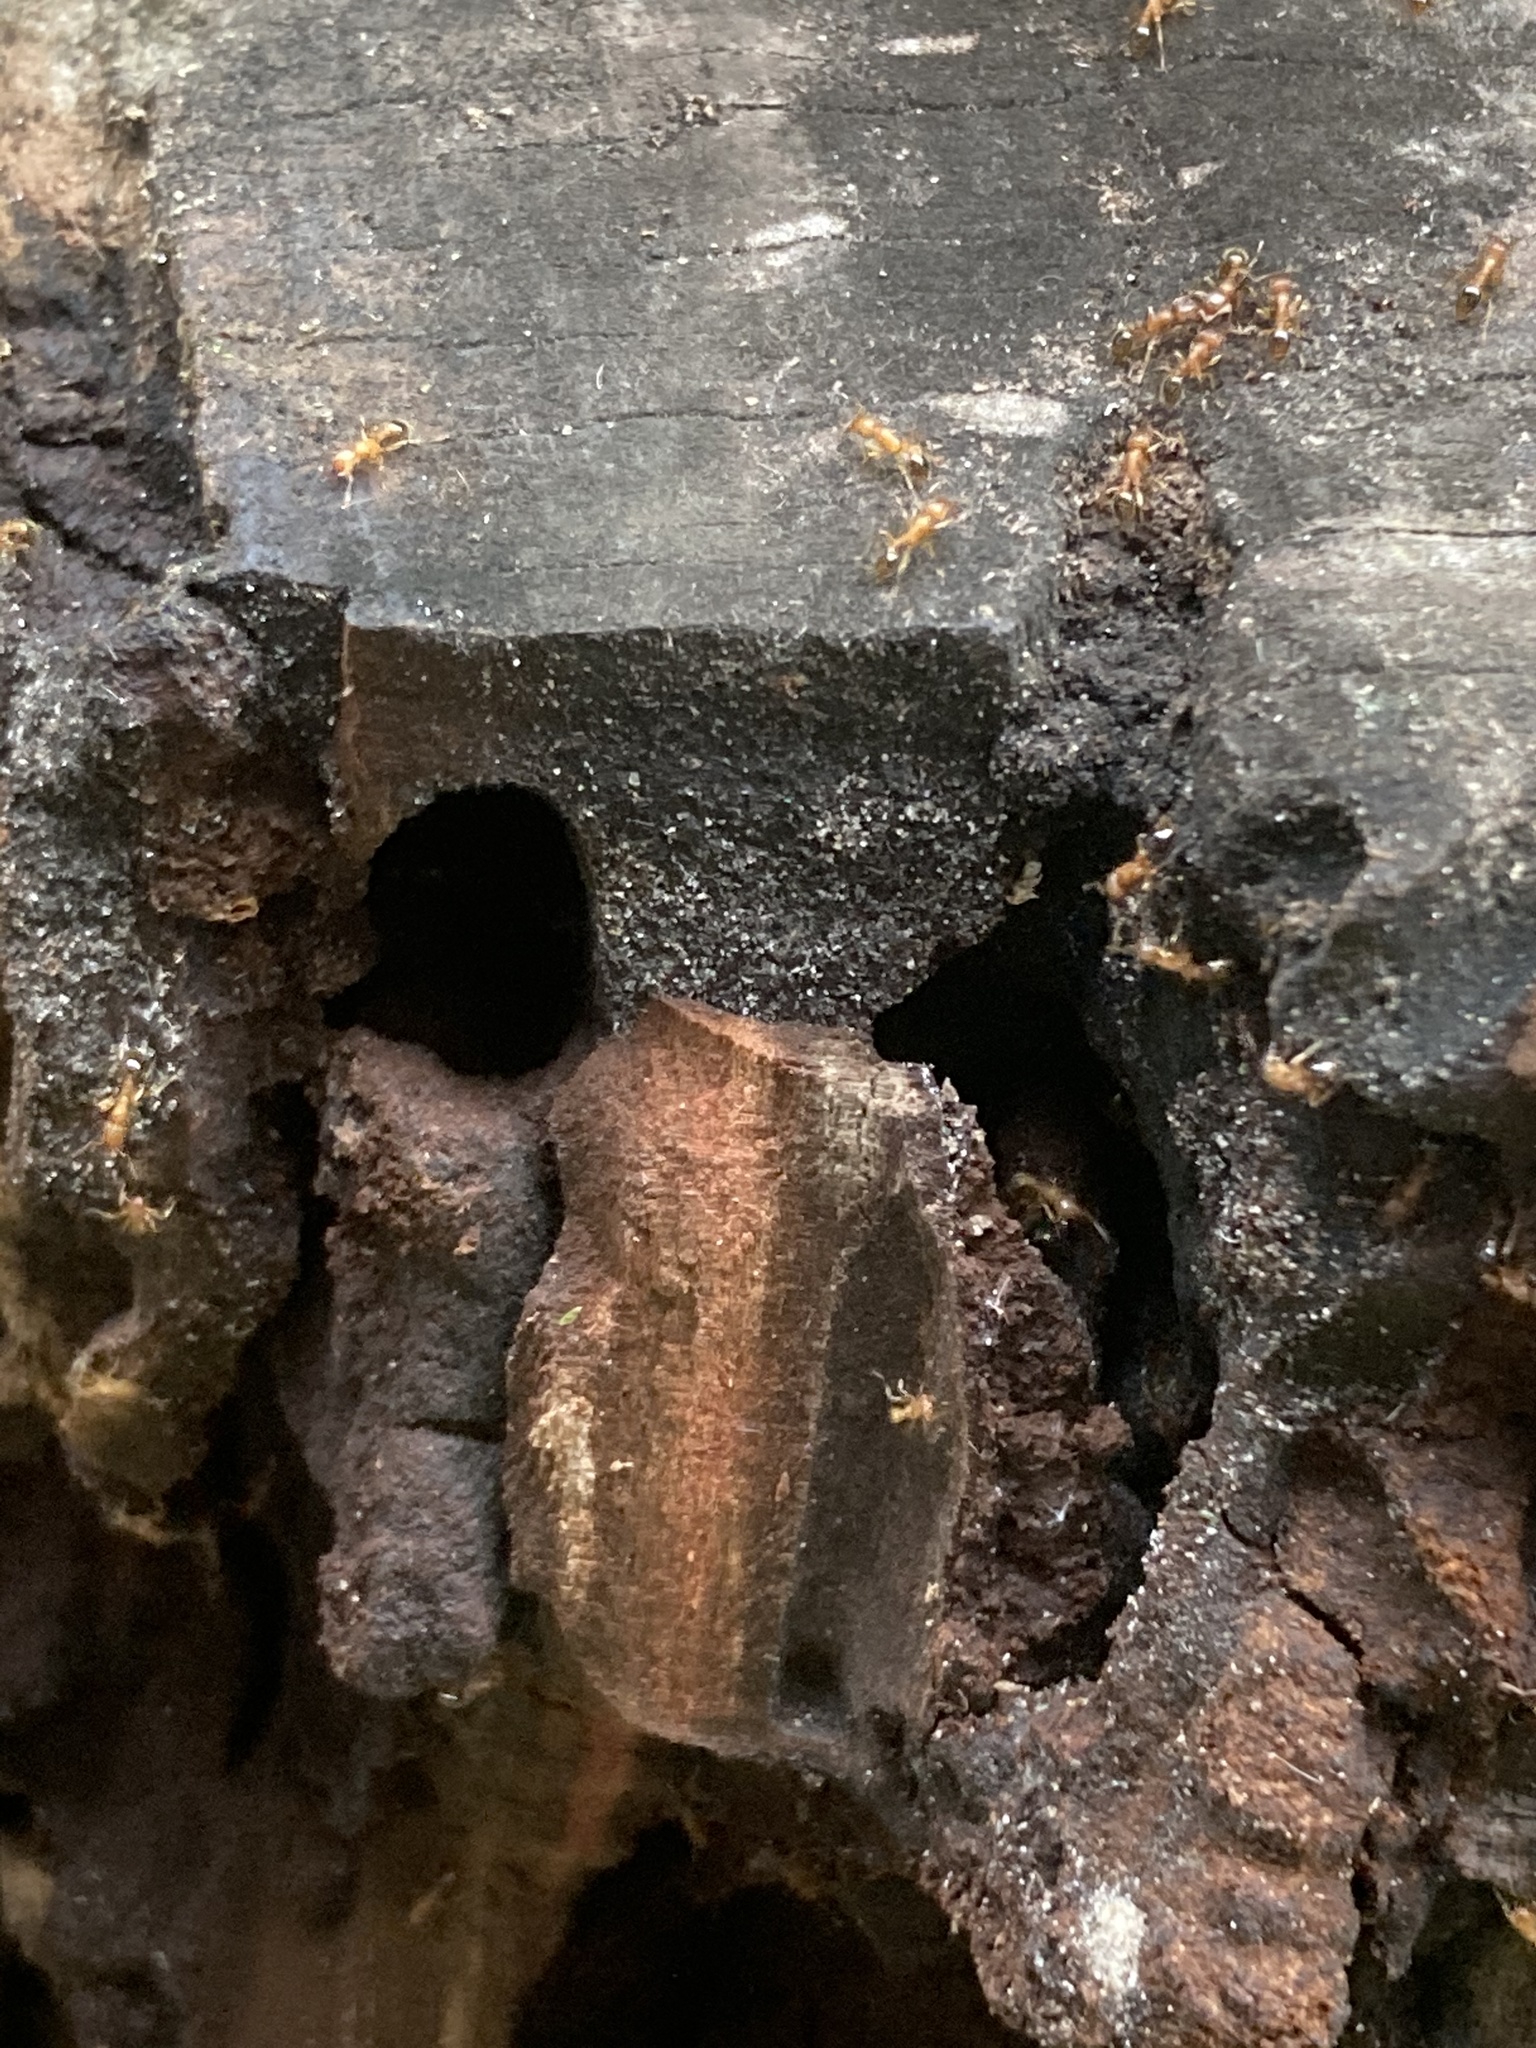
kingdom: Animalia
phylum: Arthropoda
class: Insecta
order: Hymenoptera
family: Formicidae
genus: Tetramorium
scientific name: Tetramorium bicarinatum
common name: Guinea ant
